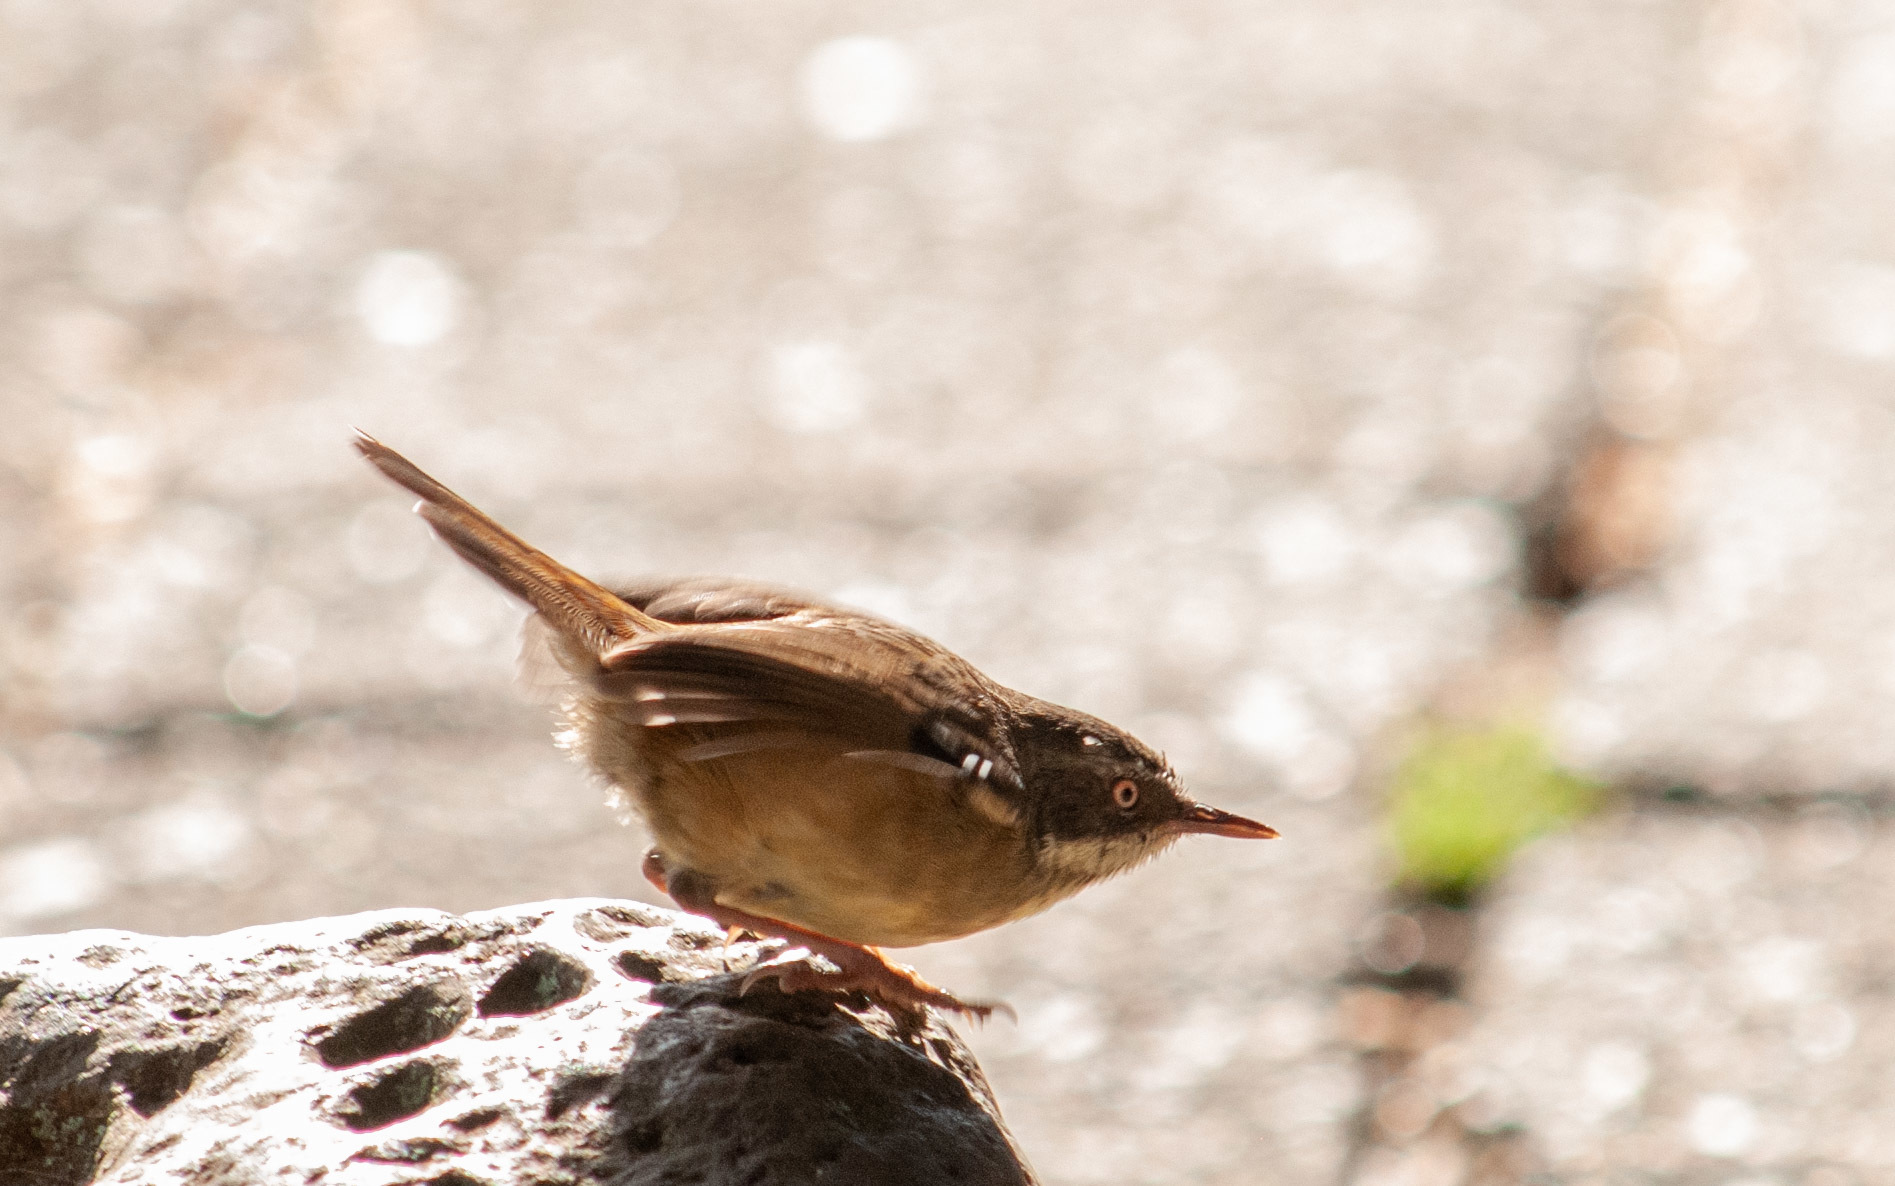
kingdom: Animalia
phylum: Chordata
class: Aves
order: Passeriformes
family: Acanthizidae
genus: Sericornis
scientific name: Sericornis frontalis
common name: White-browed scrubwren
